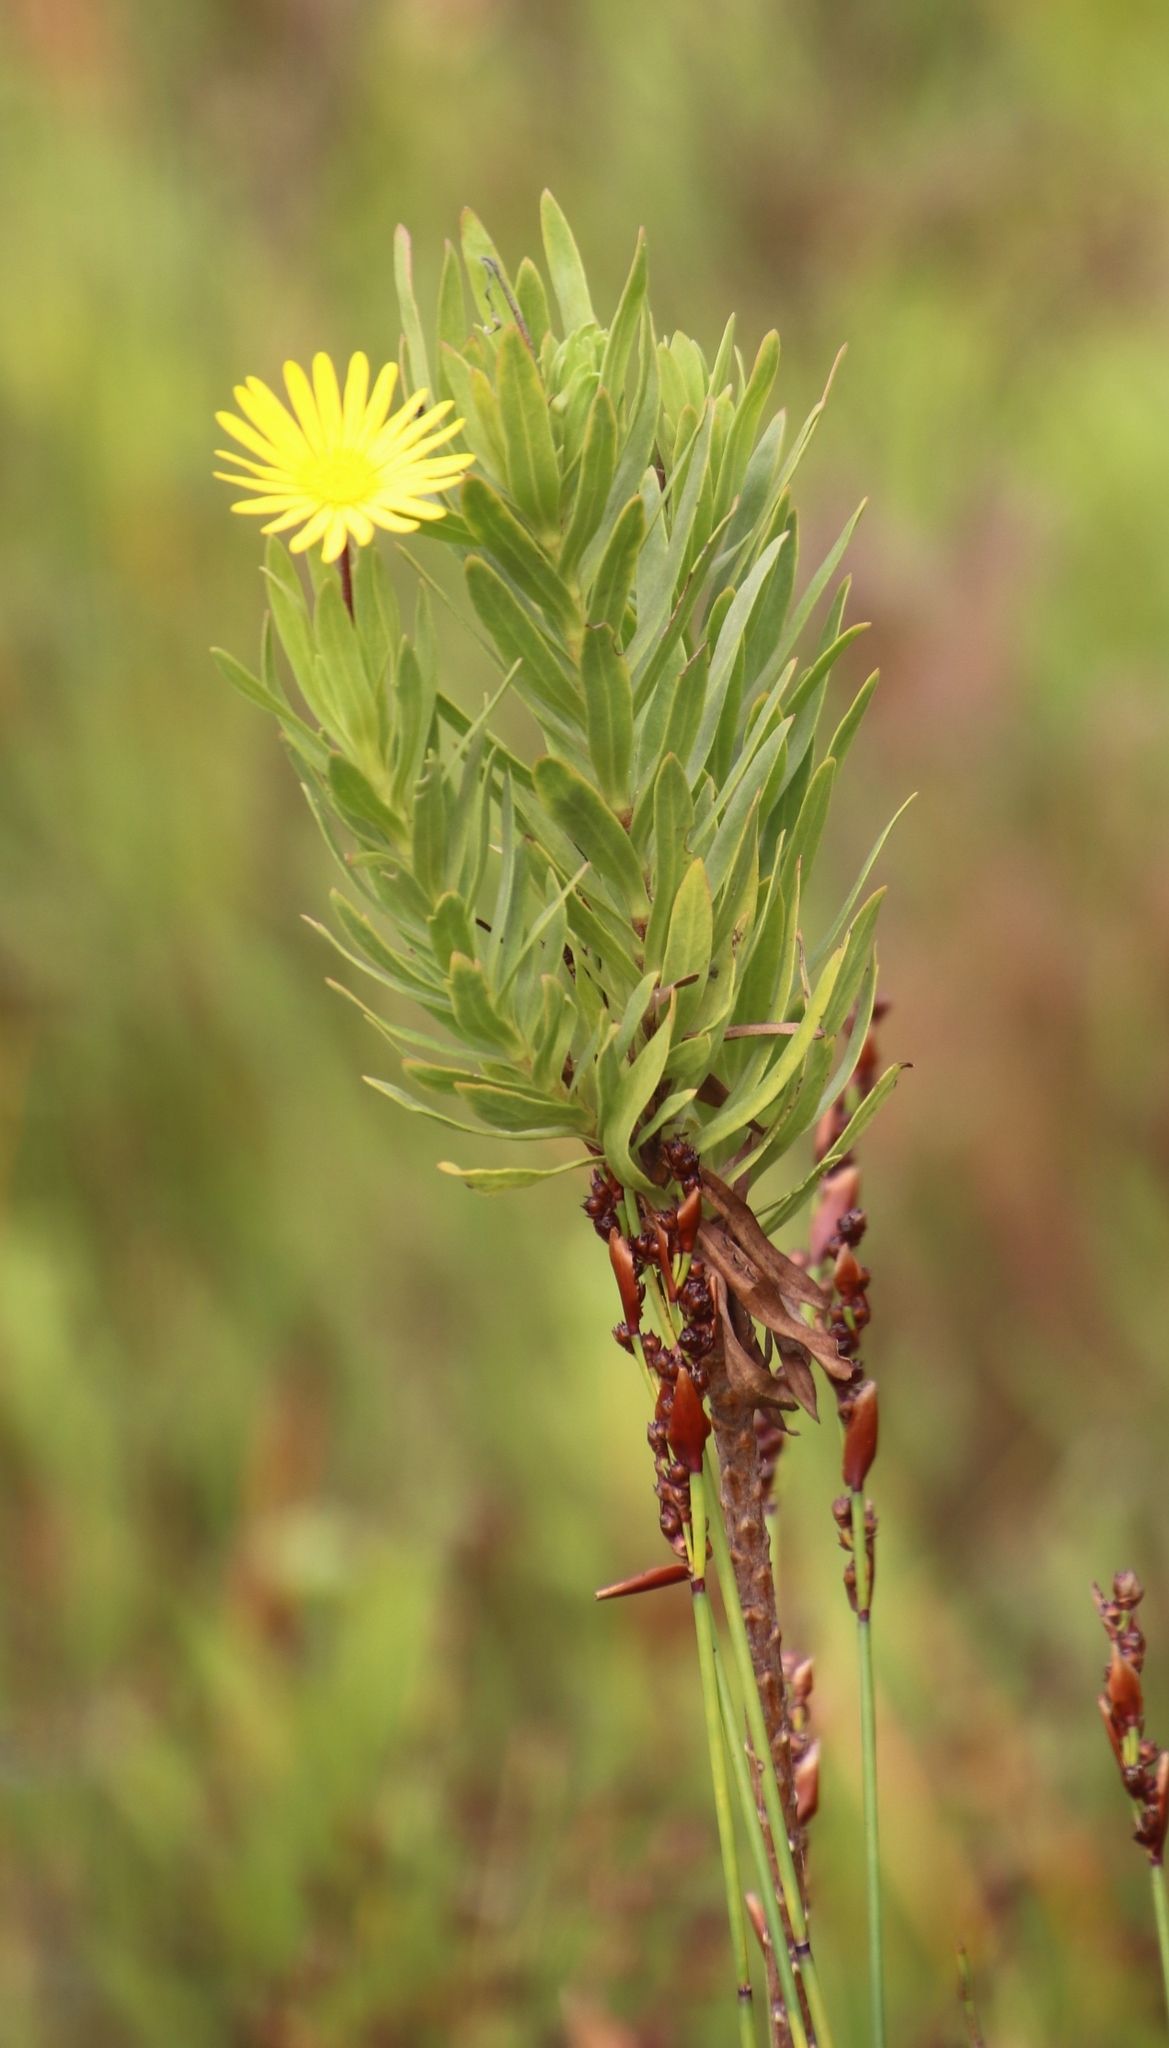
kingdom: Plantae
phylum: Tracheophyta
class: Magnoliopsida
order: Asterales
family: Asteraceae
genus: Ursinia
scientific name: Ursinia eckloniana
